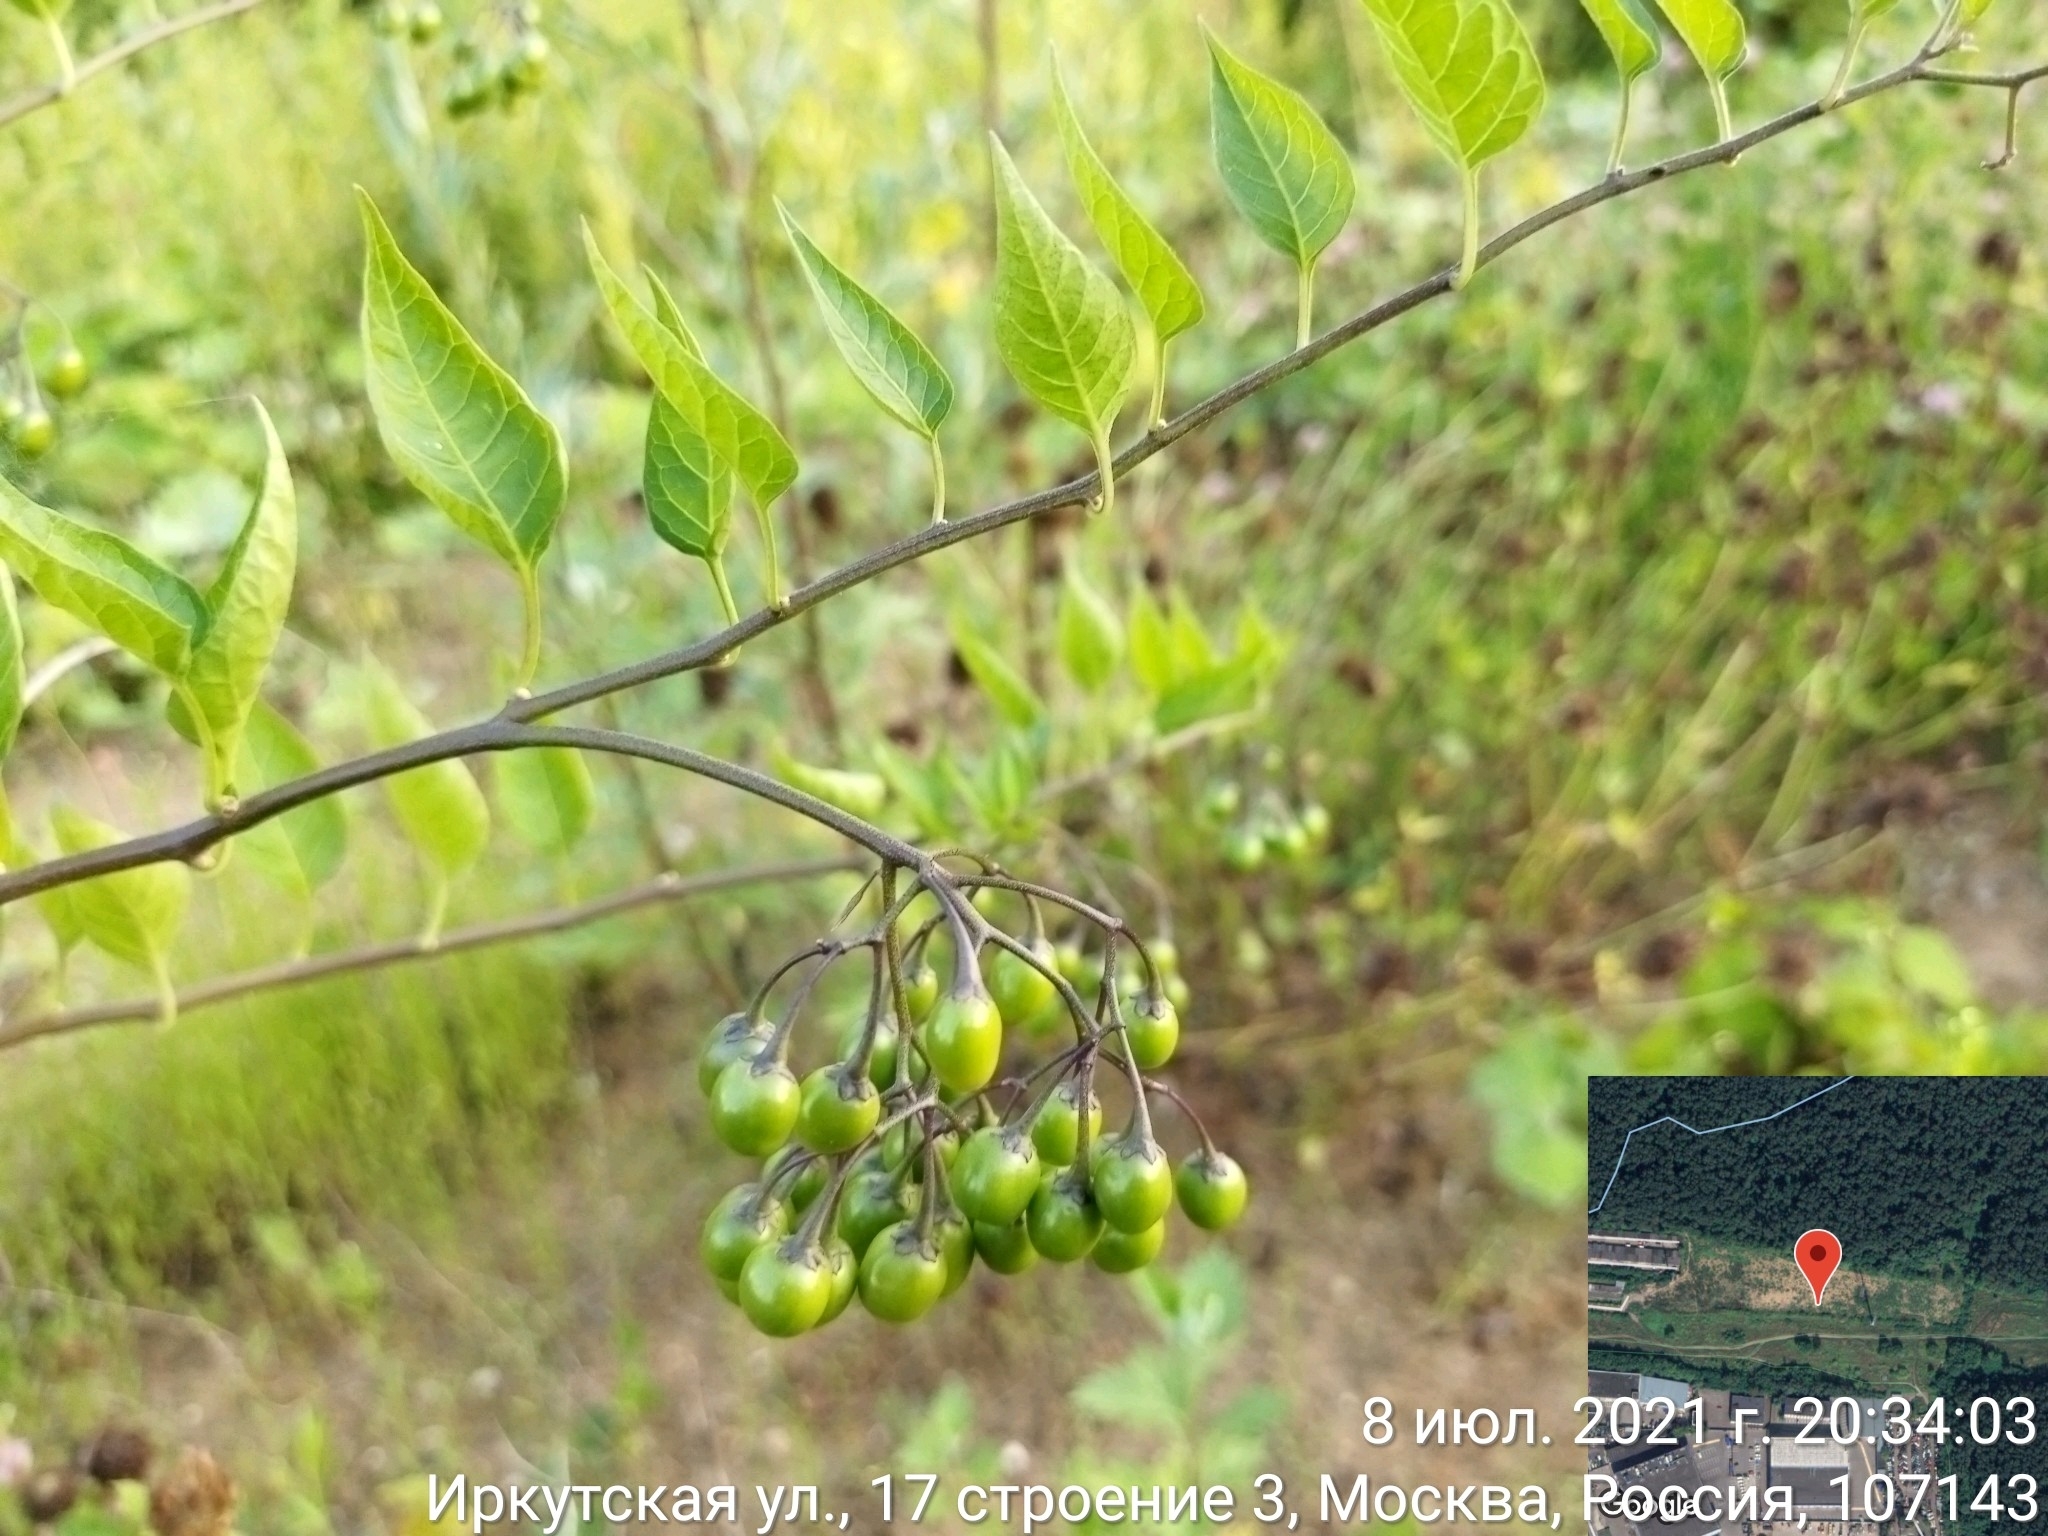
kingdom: Plantae
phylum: Tracheophyta
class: Magnoliopsida
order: Solanales
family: Solanaceae
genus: Solanum
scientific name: Solanum dulcamara
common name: Climbing nightshade
